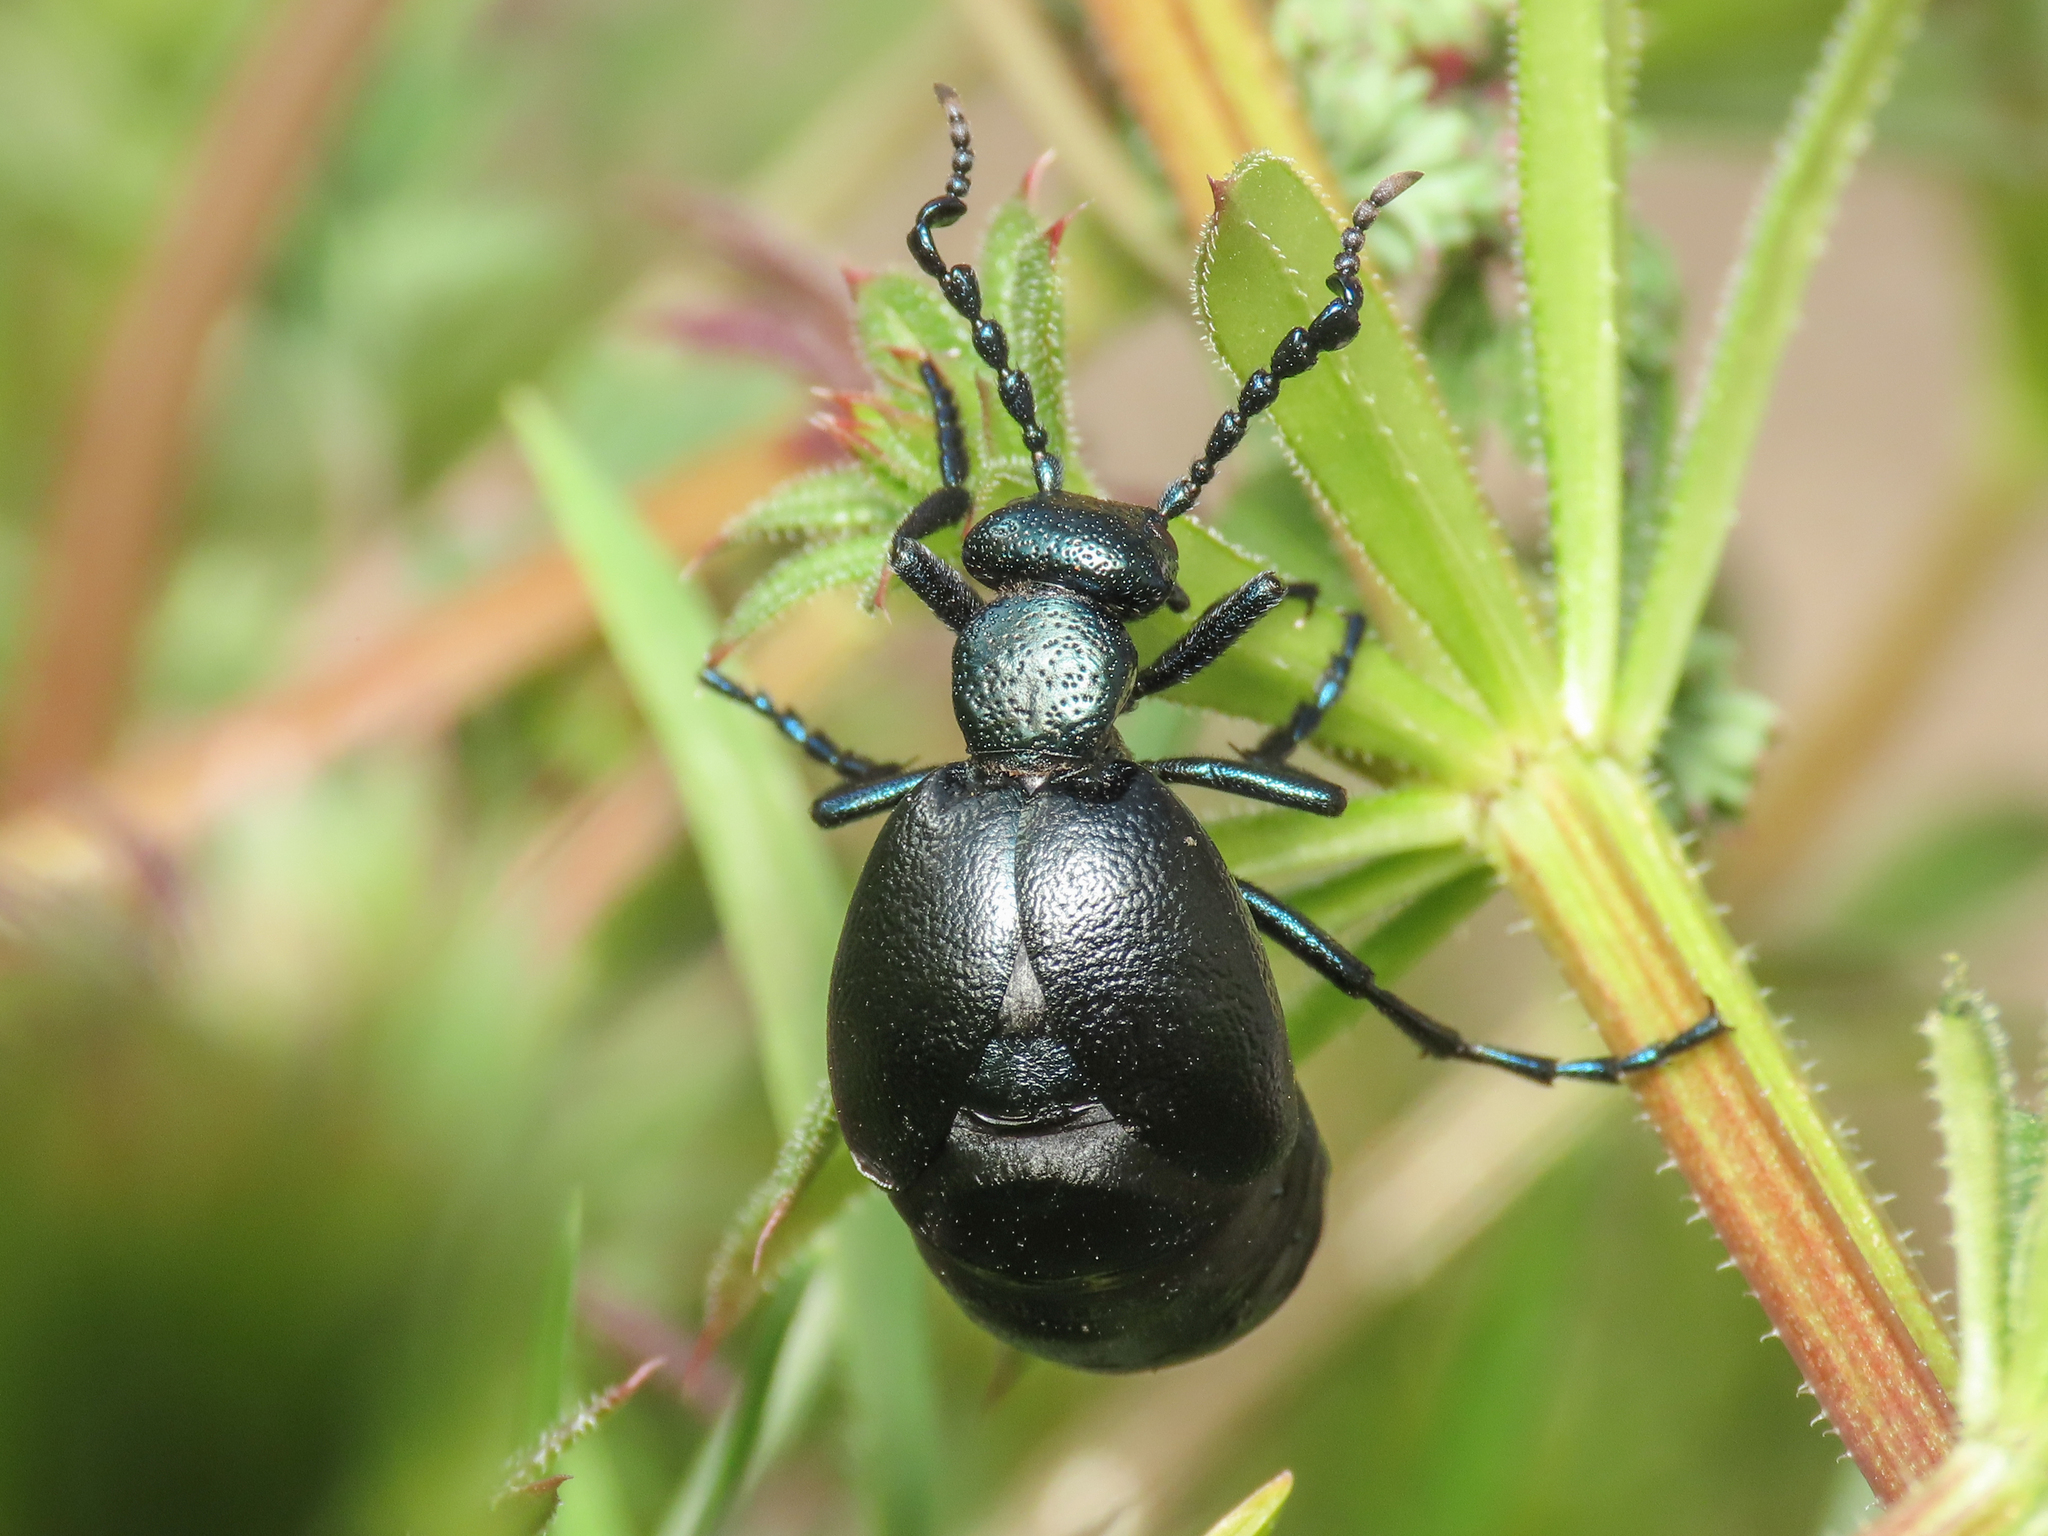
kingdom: Animalia
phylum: Arthropoda
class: Insecta
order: Coleoptera
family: Meloidae
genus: Meloe
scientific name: Meloe proscarabaeus
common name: Black oil-beetle
